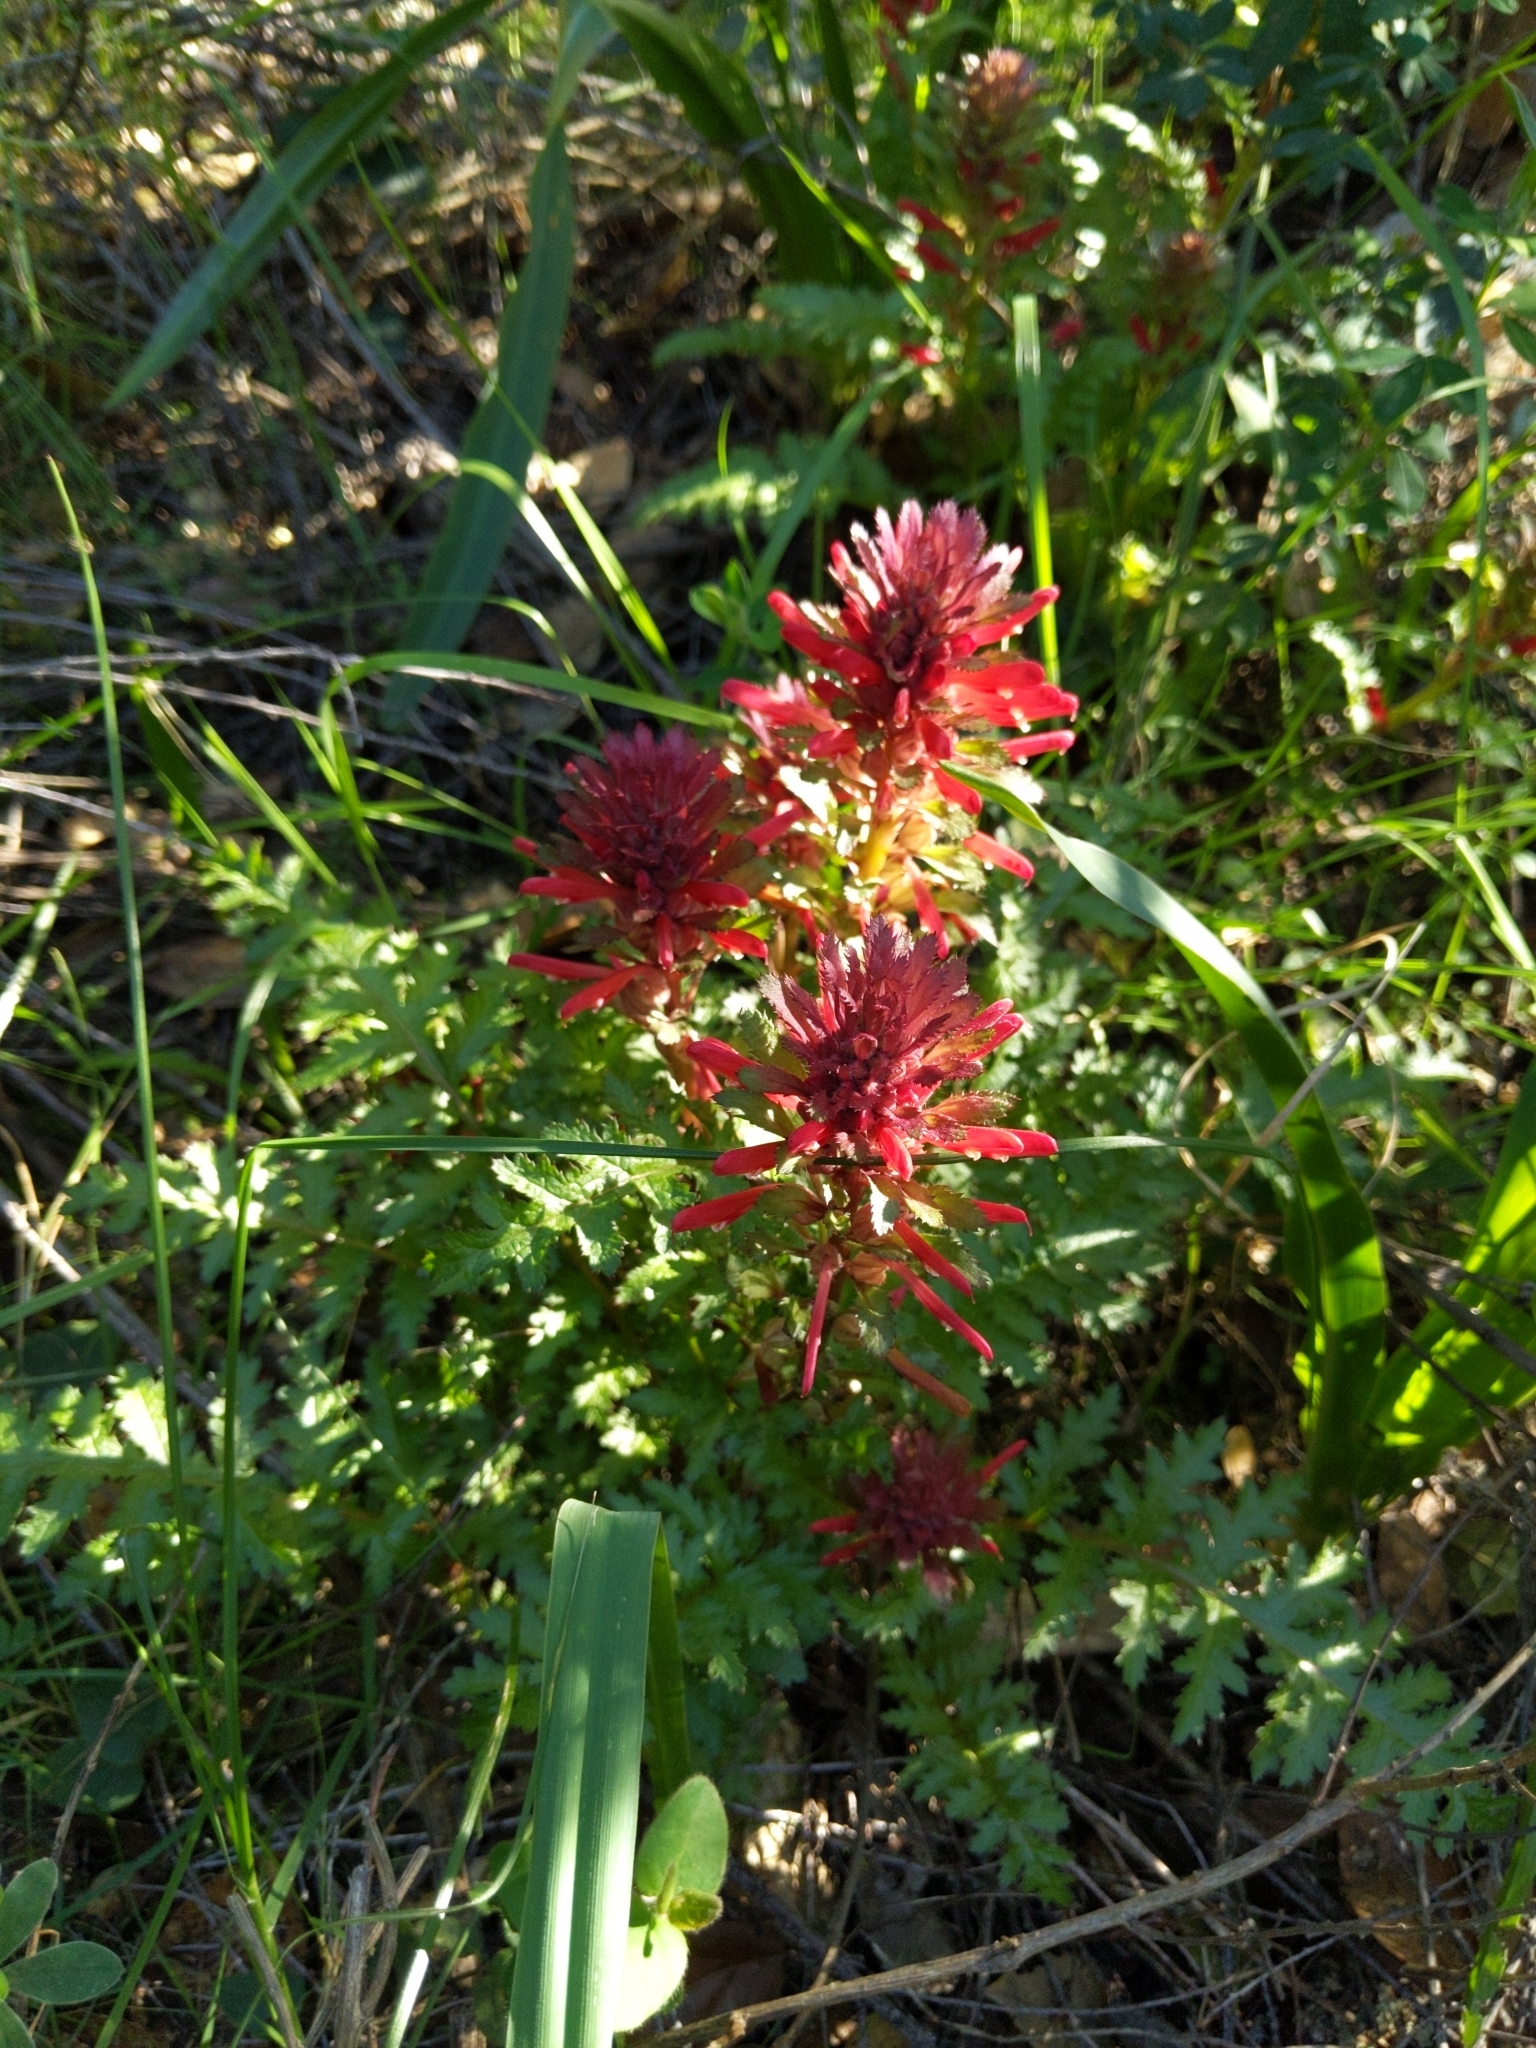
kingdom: Plantae
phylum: Tracheophyta
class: Magnoliopsida
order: Lamiales
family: Orobanchaceae
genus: Pedicularis
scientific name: Pedicularis densiflora
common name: Indian warrior
